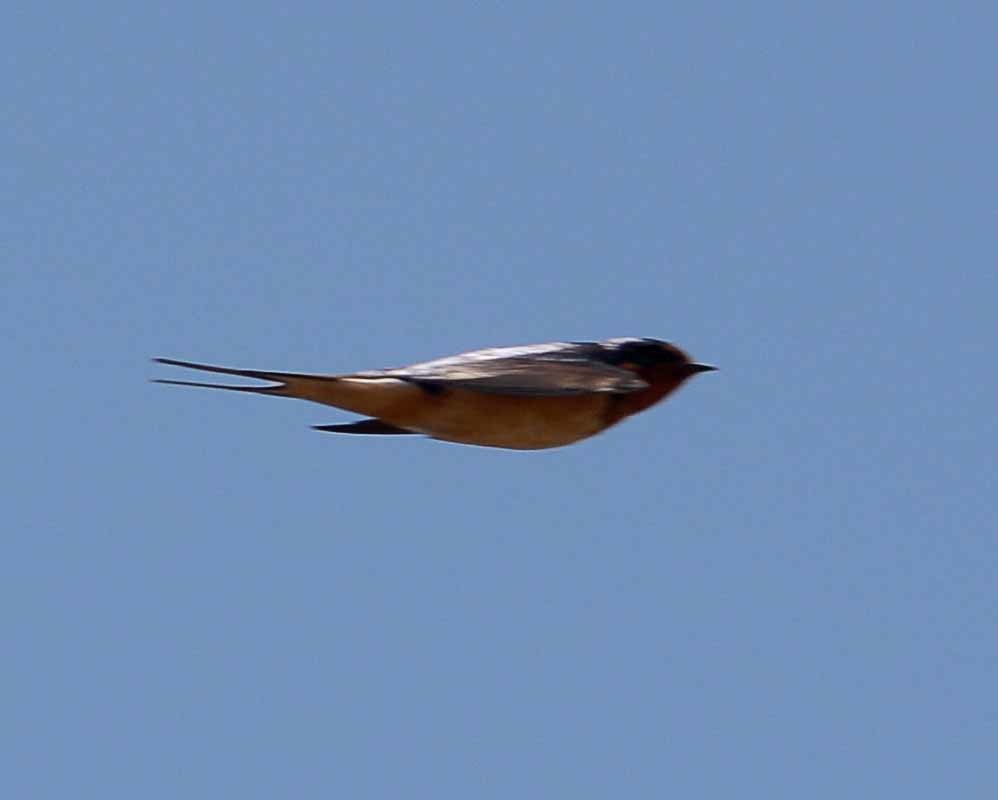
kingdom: Animalia
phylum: Chordata
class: Aves
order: Passeriformes
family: Hirundinidae
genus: Hirundo
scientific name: Hirundo rustica
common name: Barn swallow
